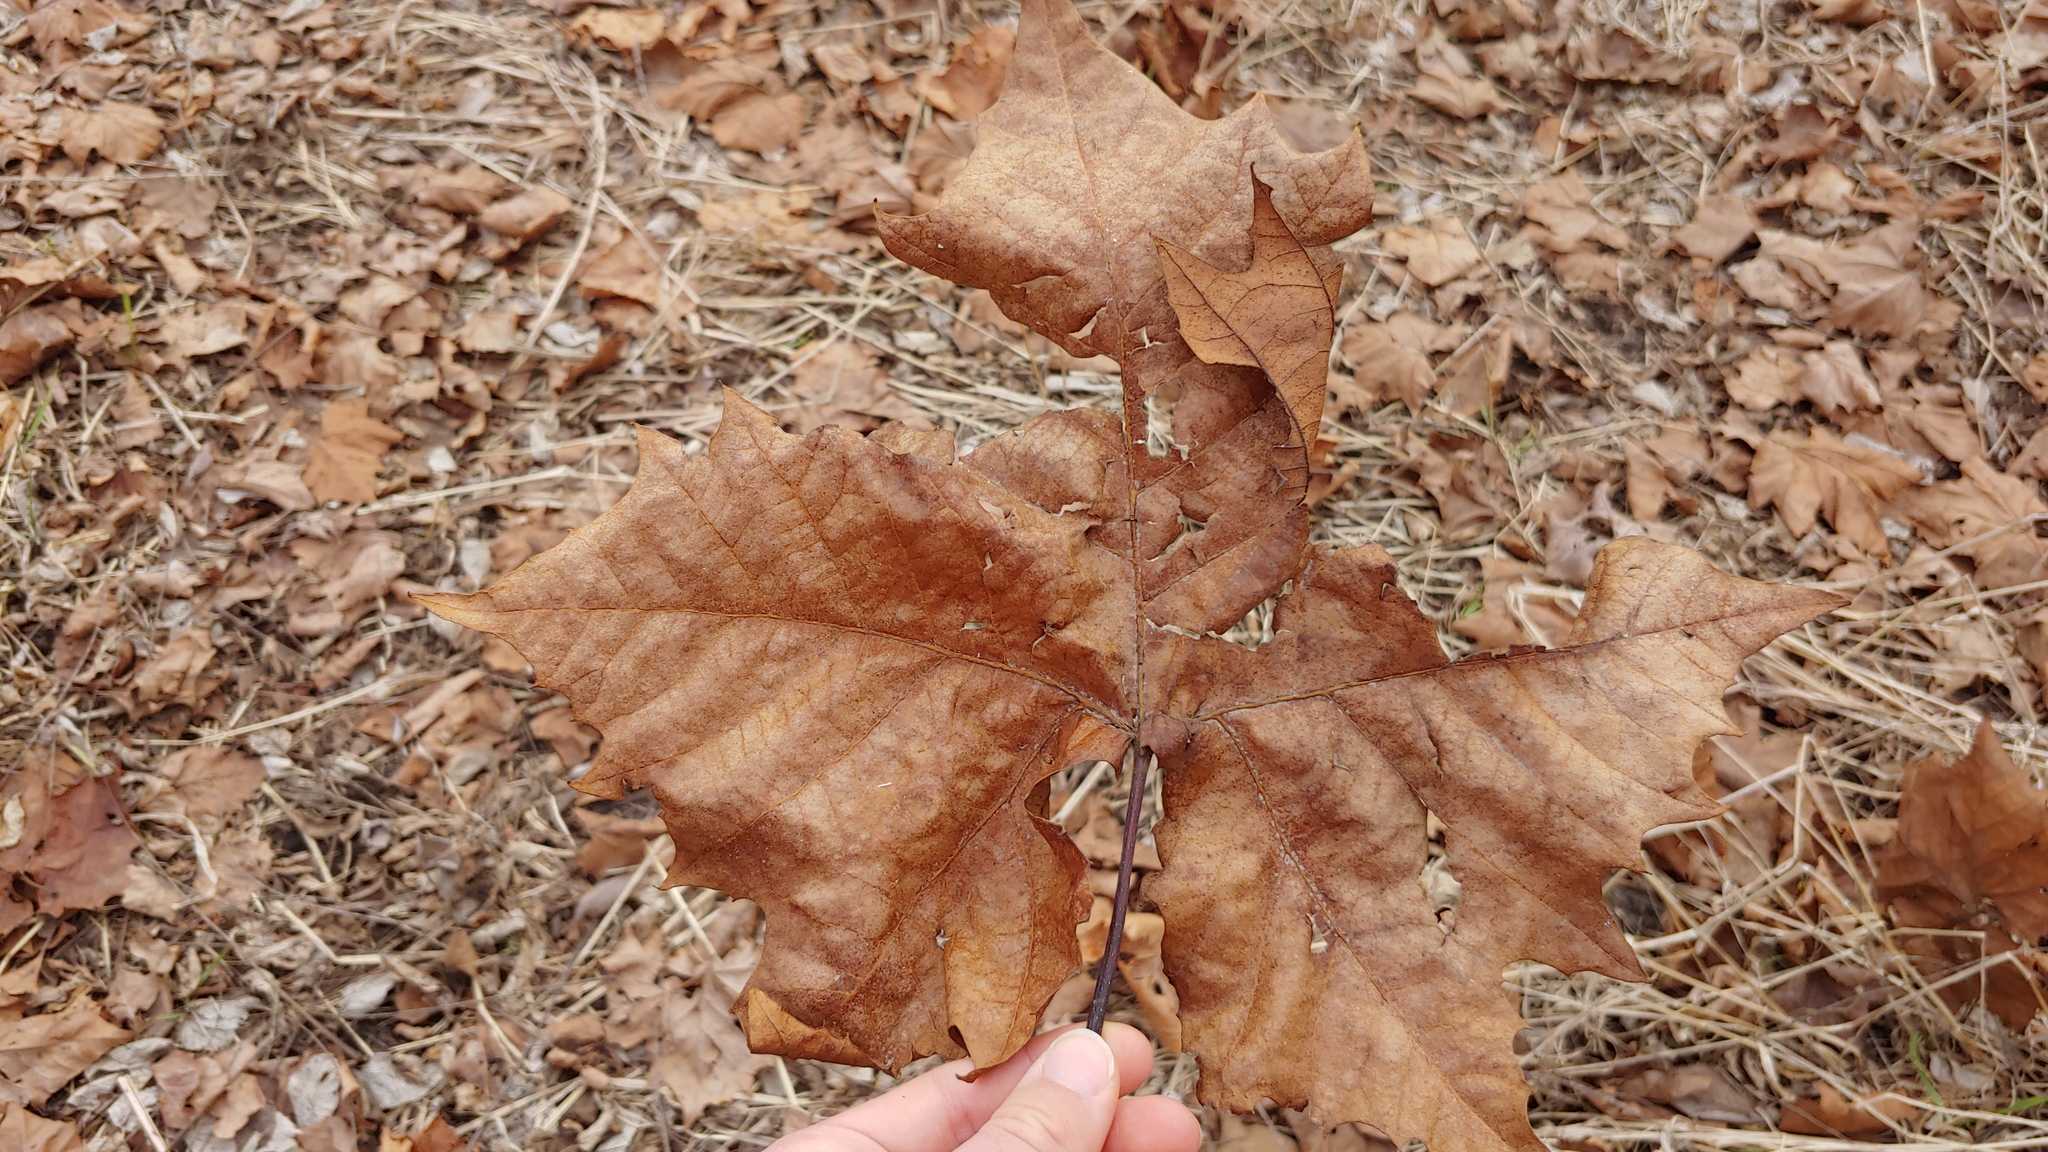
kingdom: Plantae
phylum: Tracheophyta
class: Magnoliopsida
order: Proteales
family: Platanaceae
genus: Platanus
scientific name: Platanus occidentalis
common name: American sycamore
